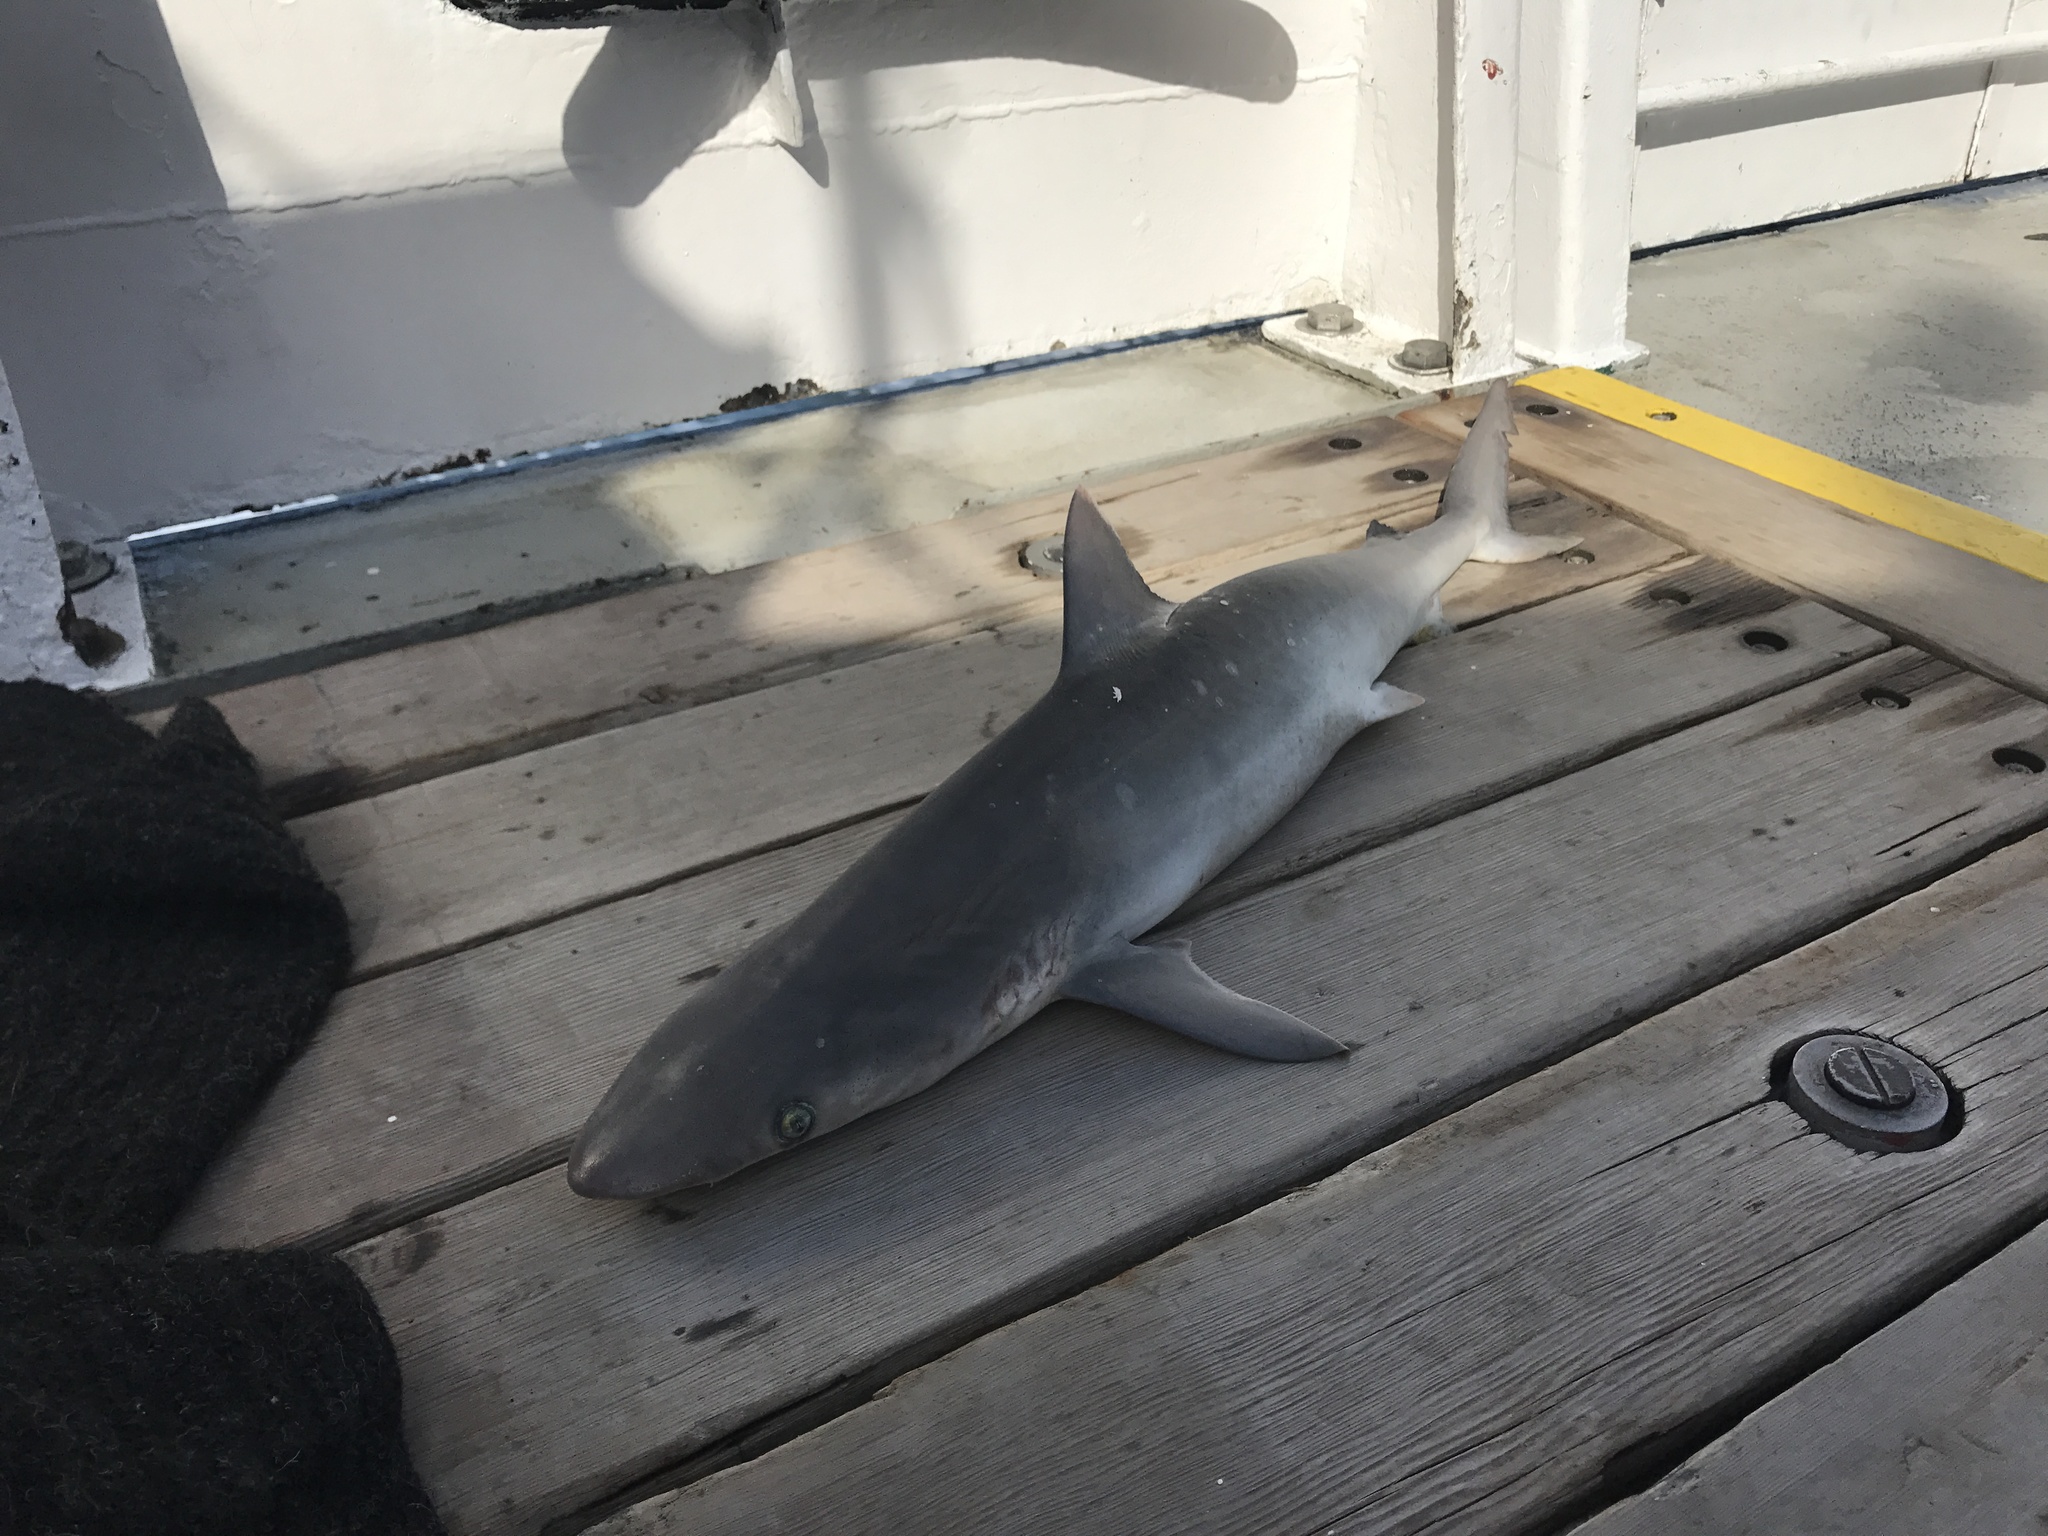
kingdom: Animalia
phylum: Chordata
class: Elasmobranchii
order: Carcharhiniformes
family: Carcharhinidae
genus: Rhizoprionodon
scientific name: Rhizoprionodon terraenovae
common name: Atlantic sharpnose shark
